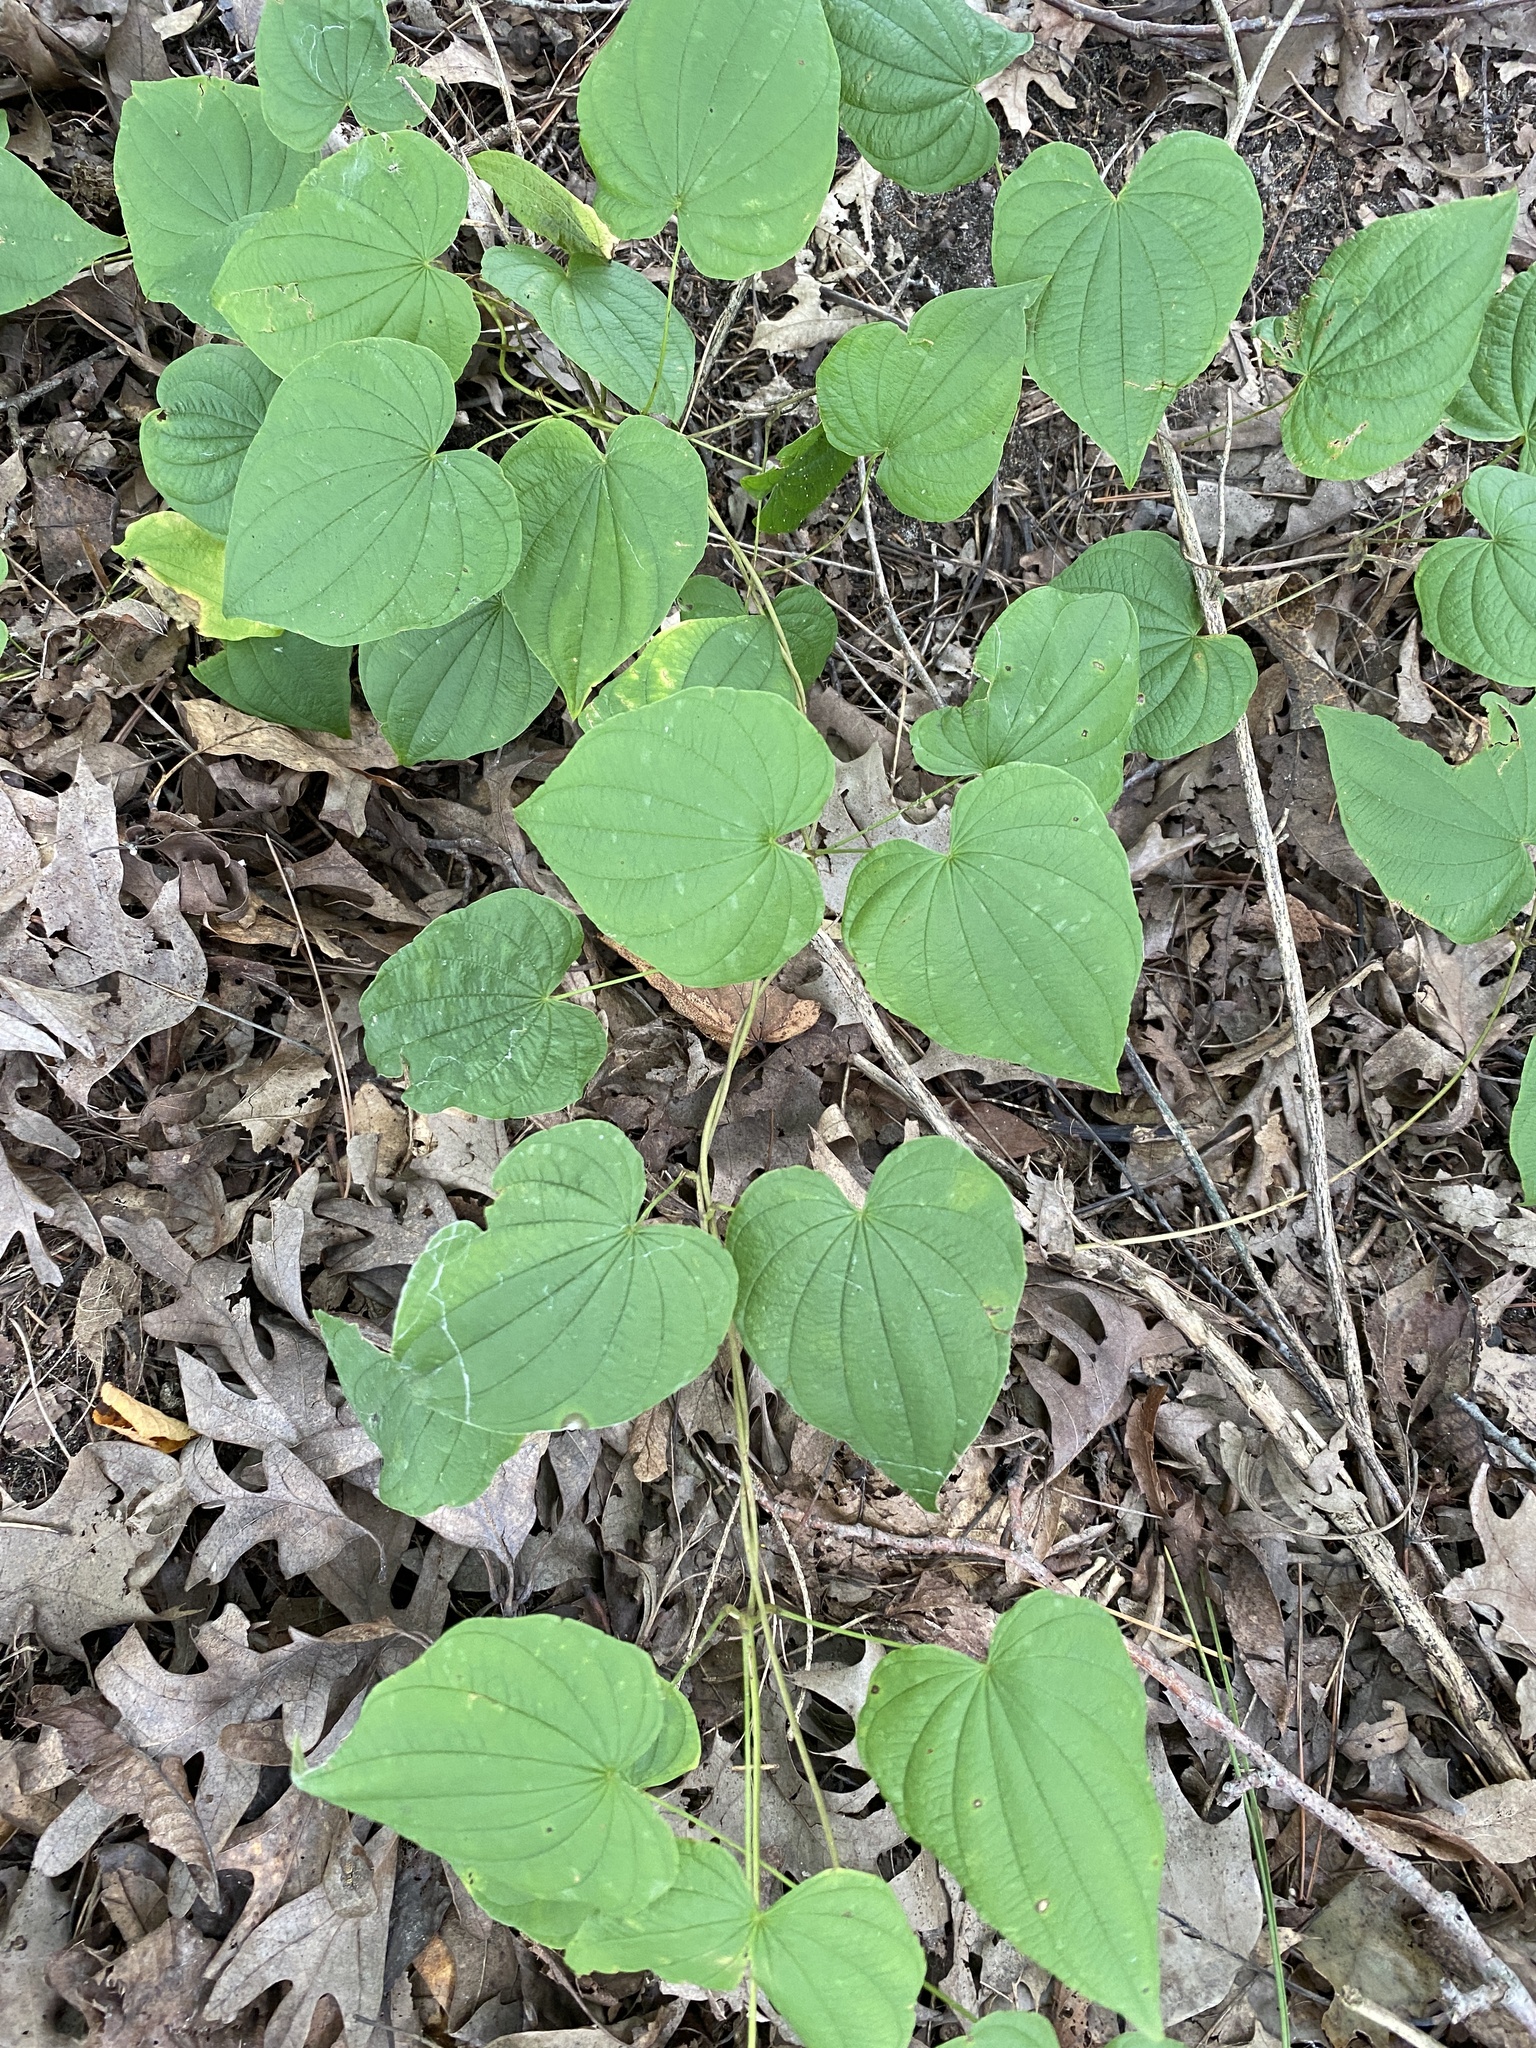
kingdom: Plantae
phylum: Tracheophyta
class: Liliopsida
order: Dioscoreales
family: Dioscoreaceae
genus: Dioscorea
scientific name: Dioscorea villosa
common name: Wild yam
